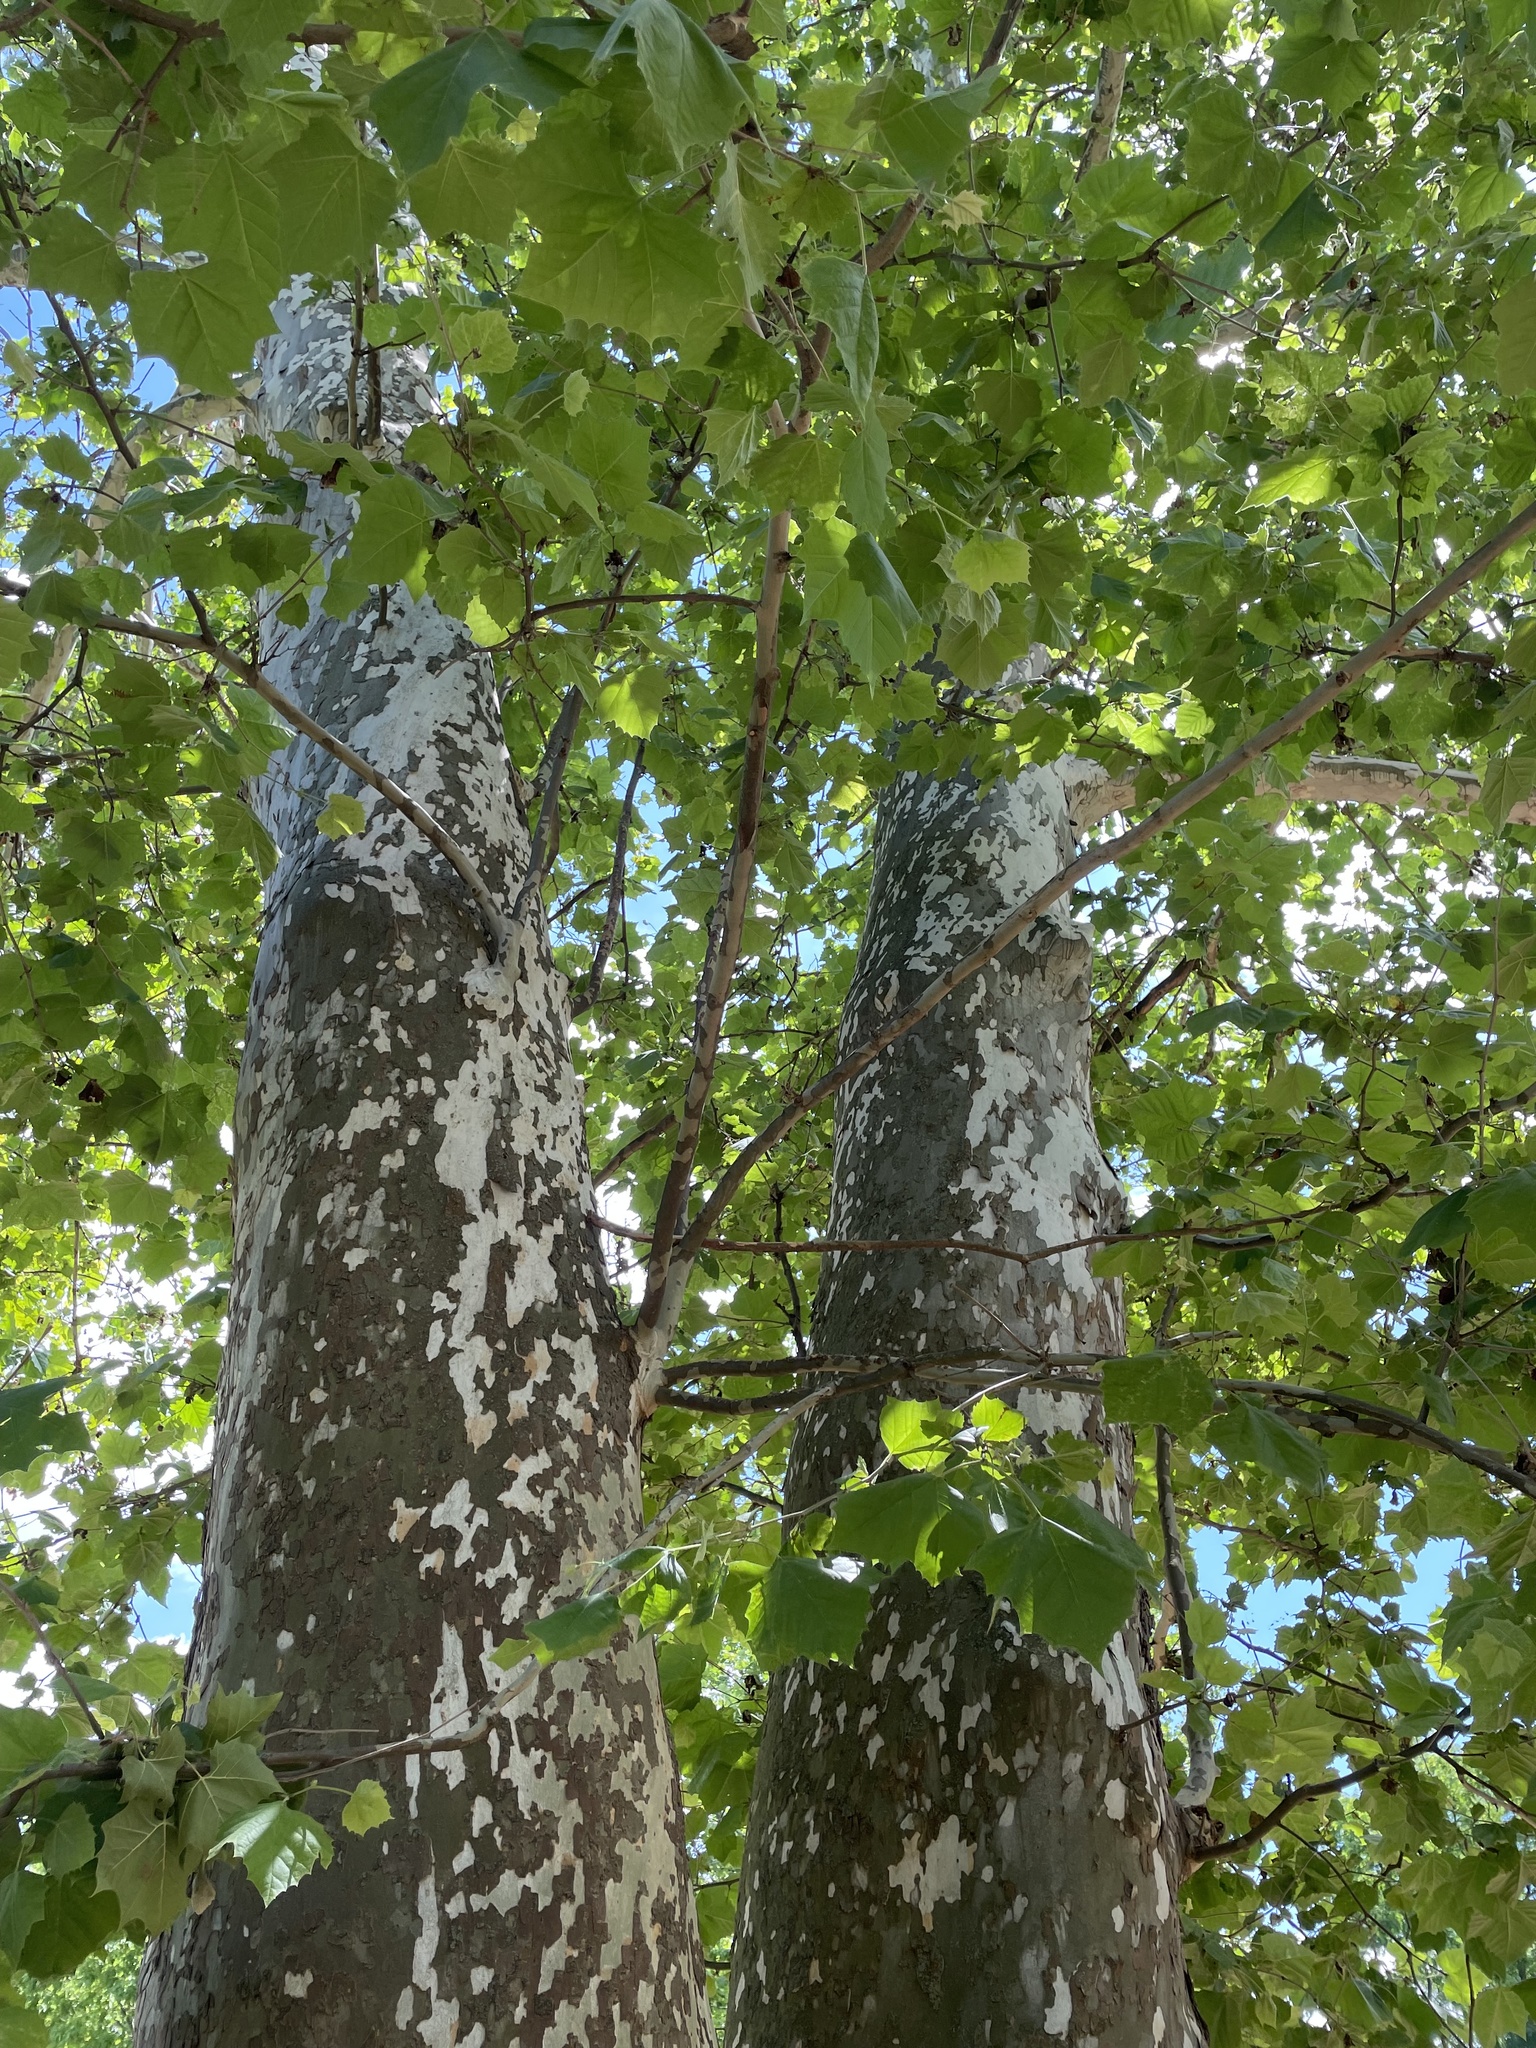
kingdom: Plantae
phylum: Tracheophyta
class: Magnoliopsida
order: Proteales
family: Platanaceae
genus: Platanus
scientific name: Platanus occidentalis
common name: American sycamore
